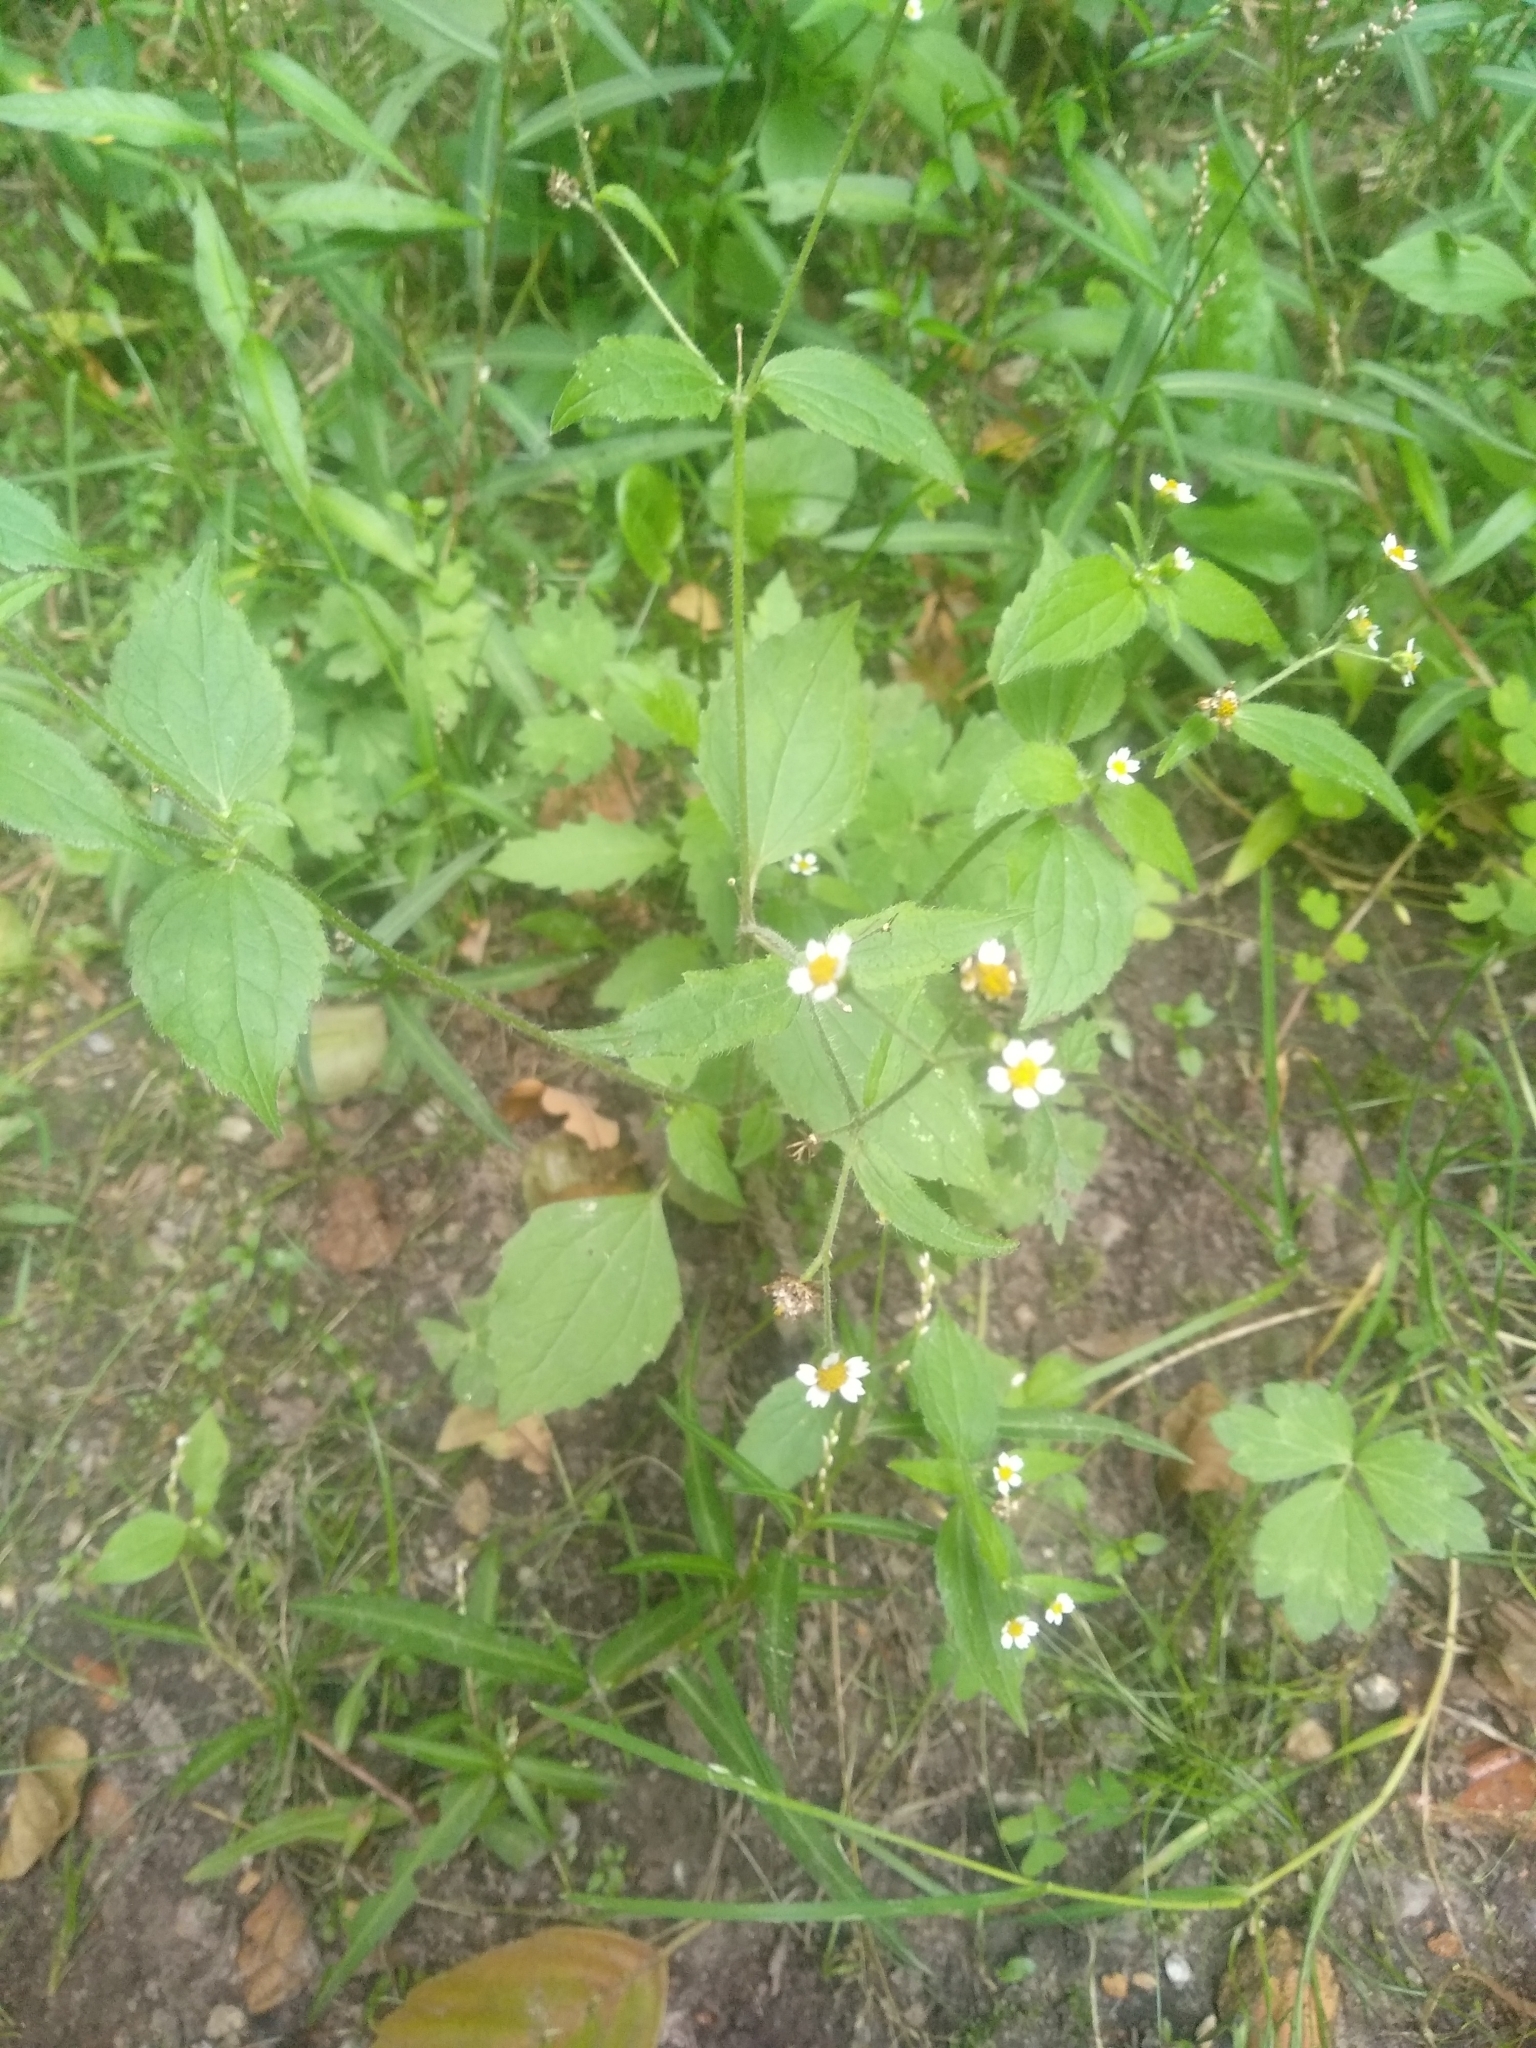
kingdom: Plantae
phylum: Tracheophyta
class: Magnoliopsida
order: Asterales
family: Asteraceae
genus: Galinsoga
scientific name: Galinsoga quadriradiata
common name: Shaggy soldier
